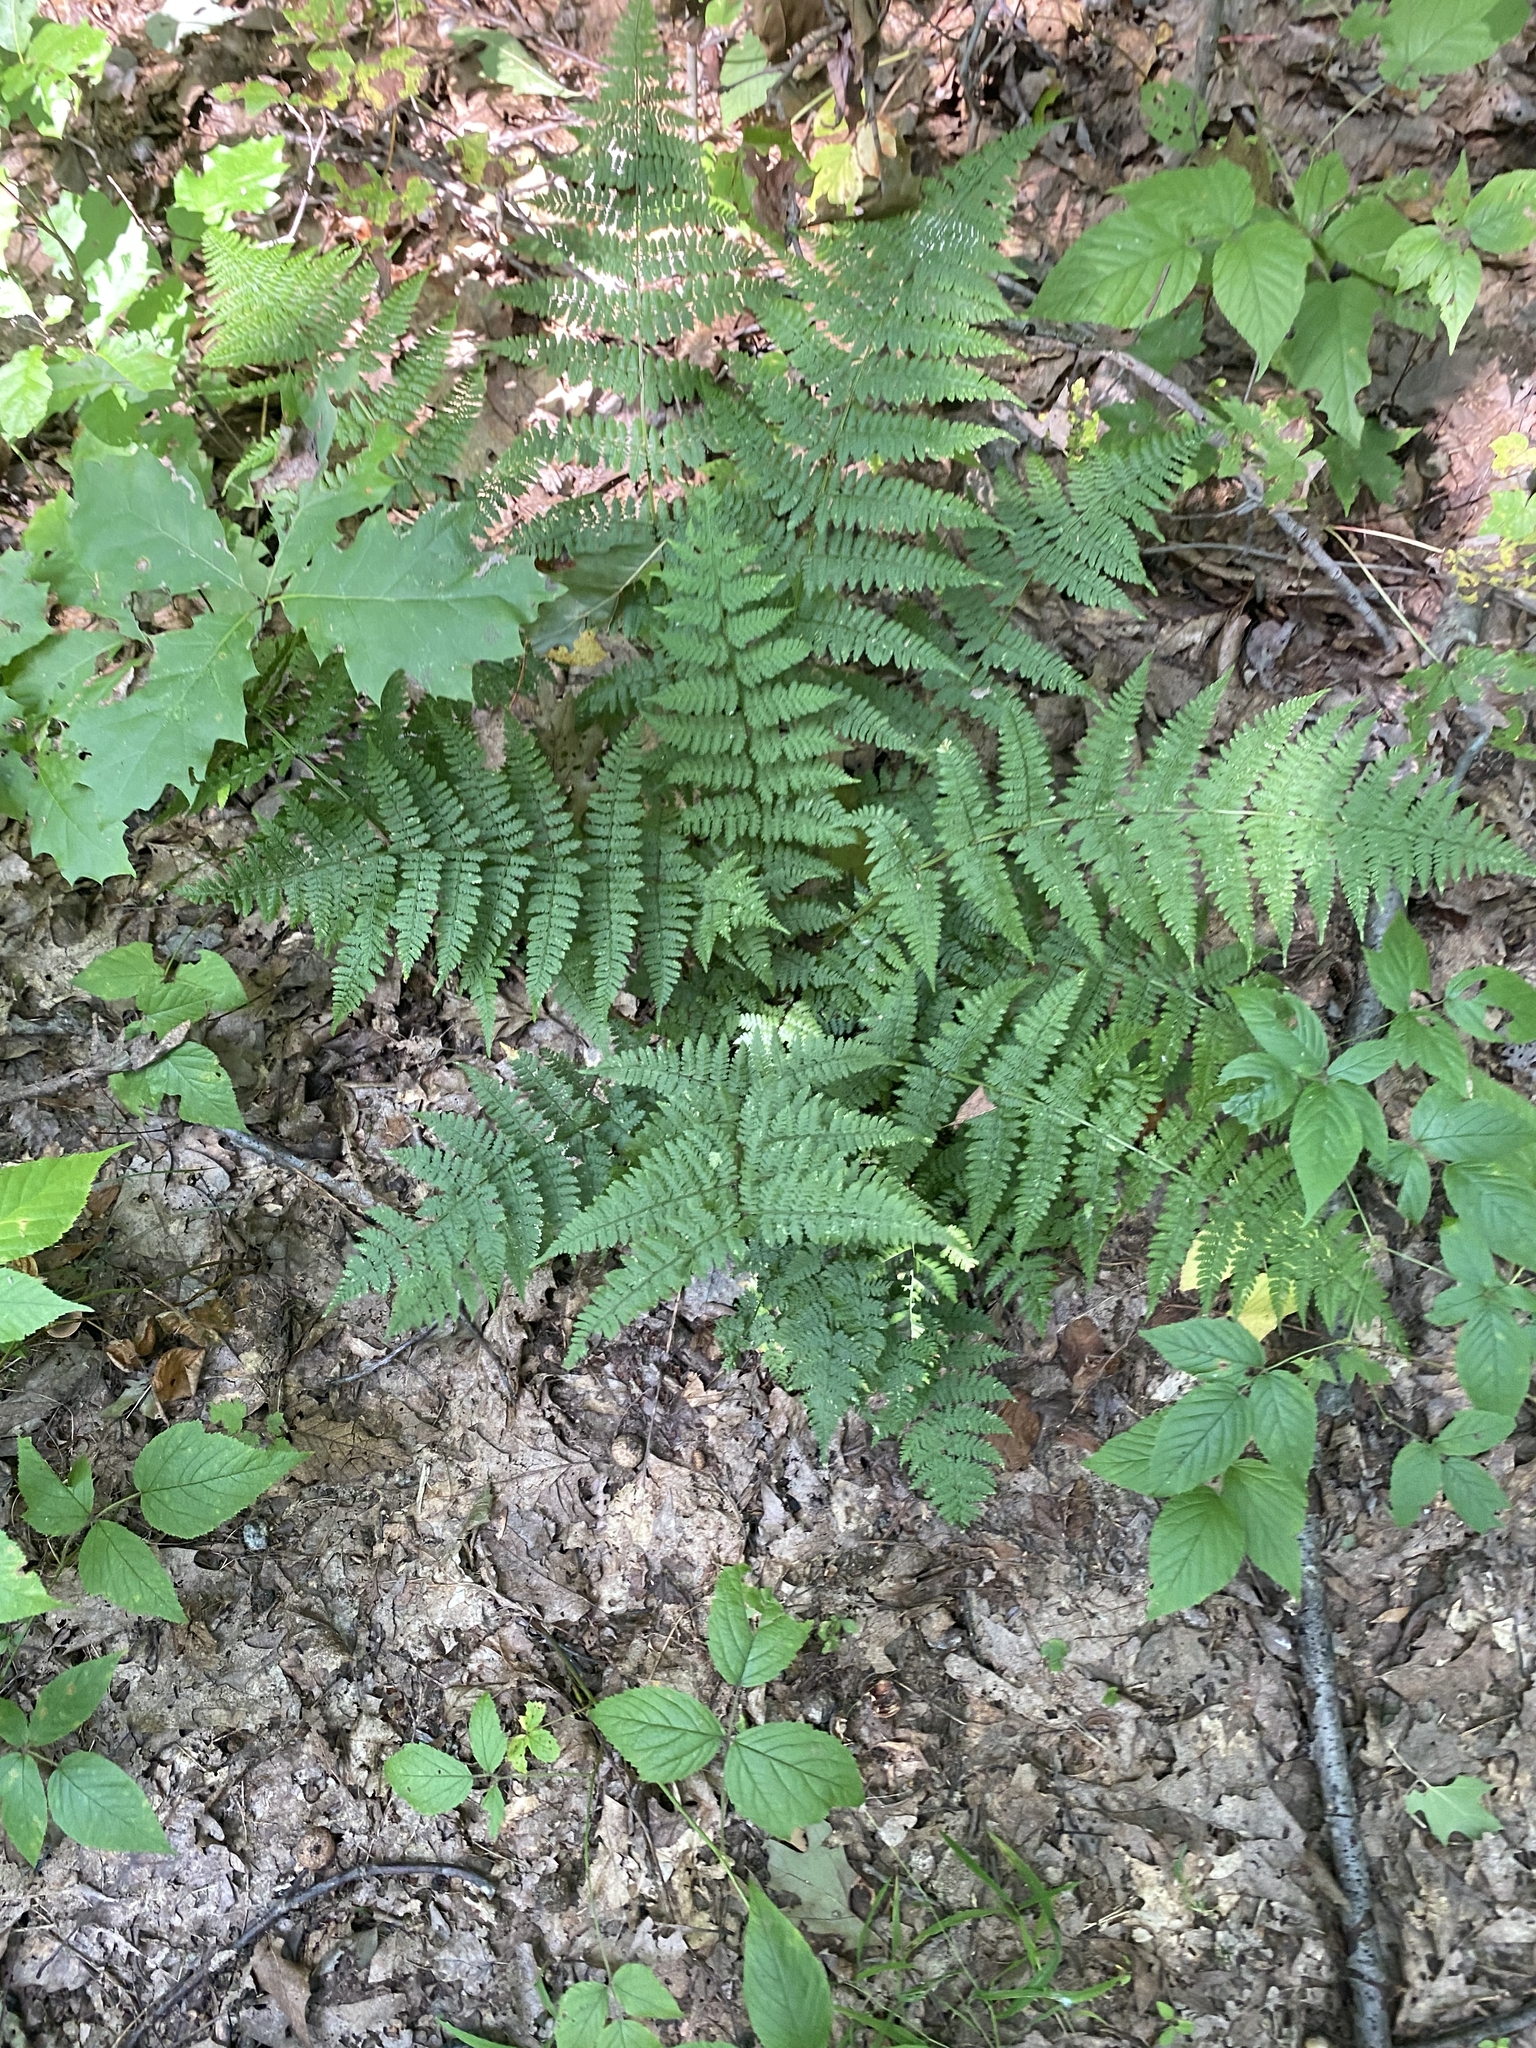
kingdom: Plantae
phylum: Tracheophyta
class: Polypodiopsida
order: Polypodiales
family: Dryopteridaceae
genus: Dryopteris
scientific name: Dryopteris intermedia
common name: Evergreen wood fern
